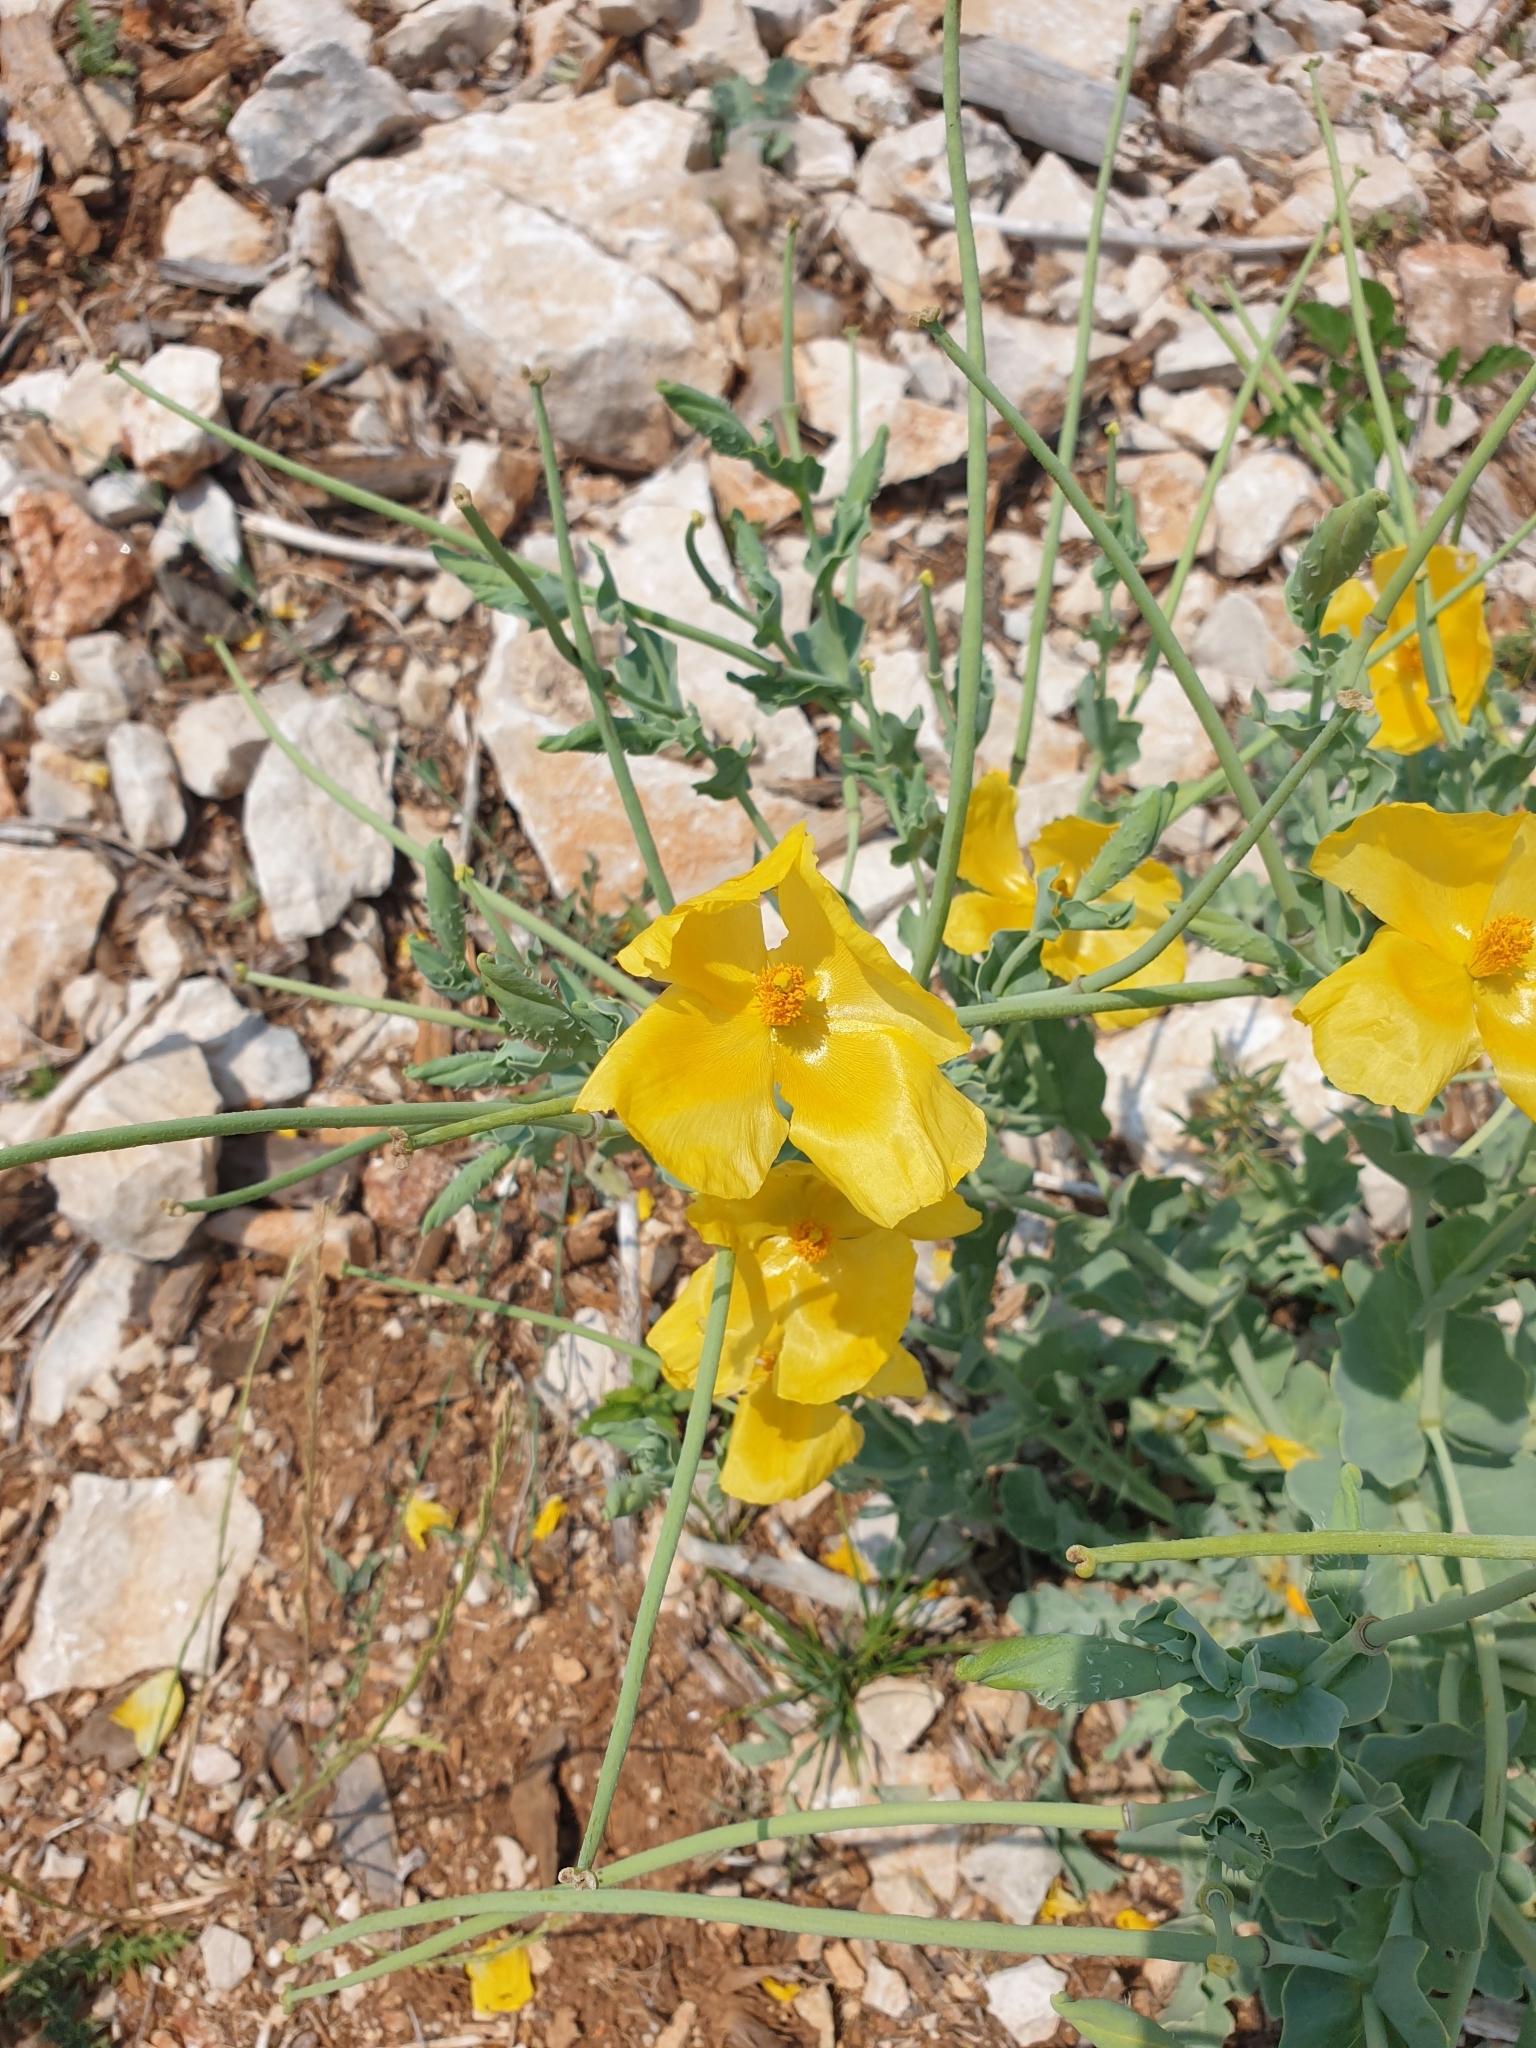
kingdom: Plantae
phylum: Tracheophyta
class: Magnoliopsida
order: Ranunculales
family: Papaveraceae
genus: Glaucium
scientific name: Glaucium flavum
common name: Yellow horned-poppy
